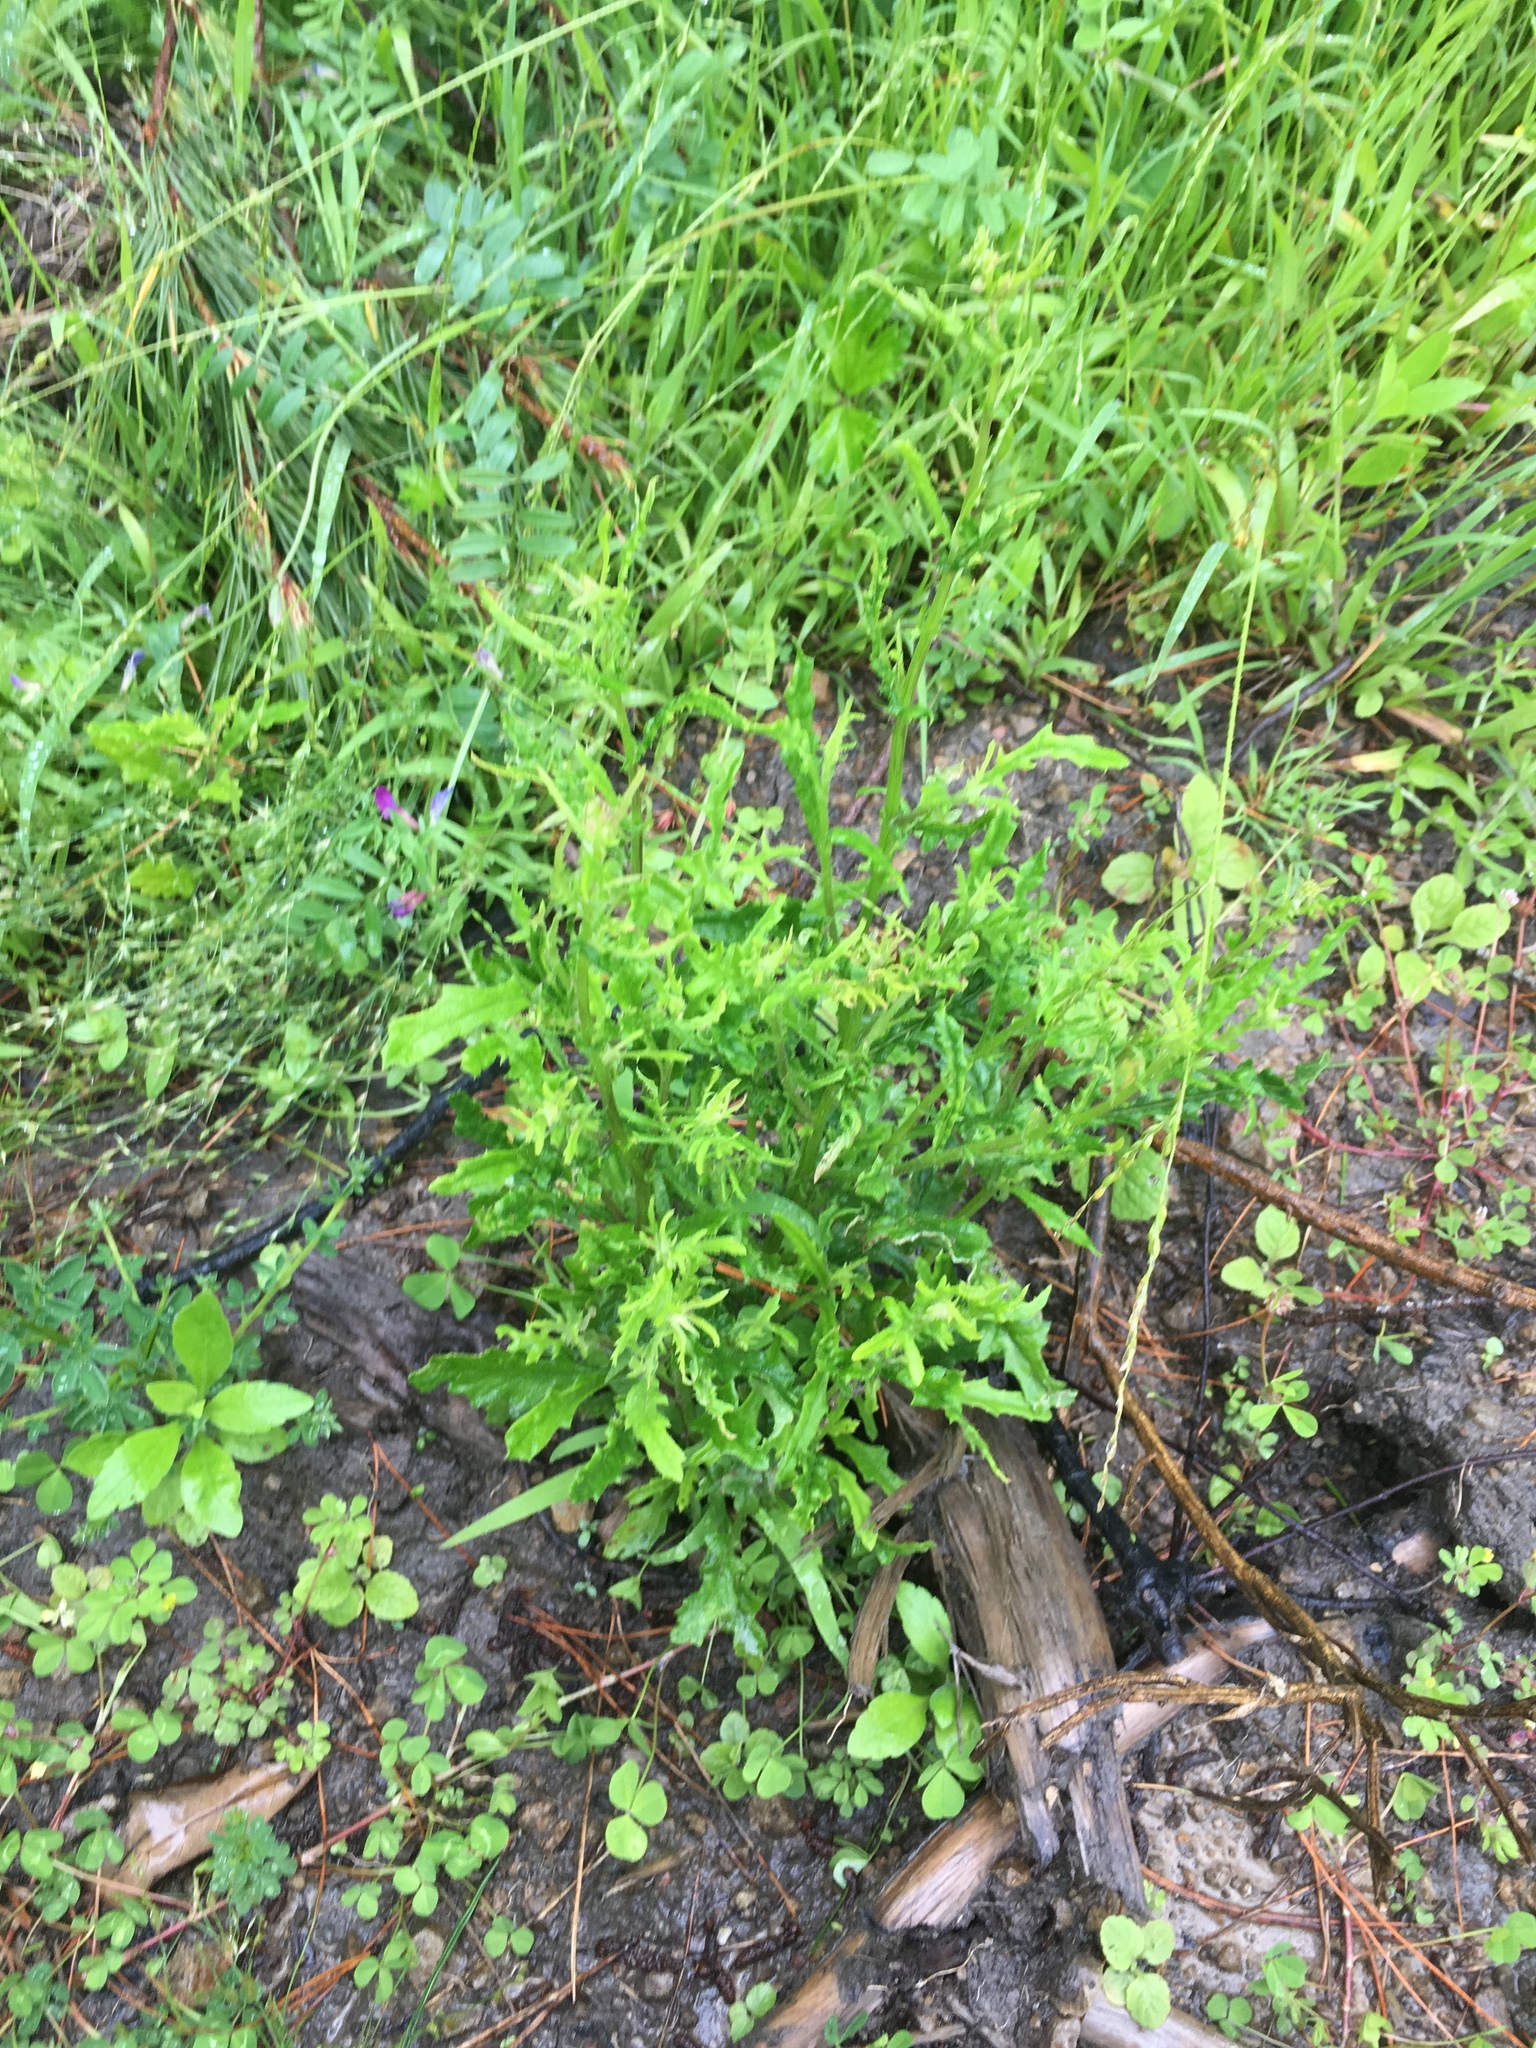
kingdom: Plantae
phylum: Tracheophyta
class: Magnoliopsida
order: Asterales
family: Asteraceae
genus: Senecio
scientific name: Senecio hispidulus
